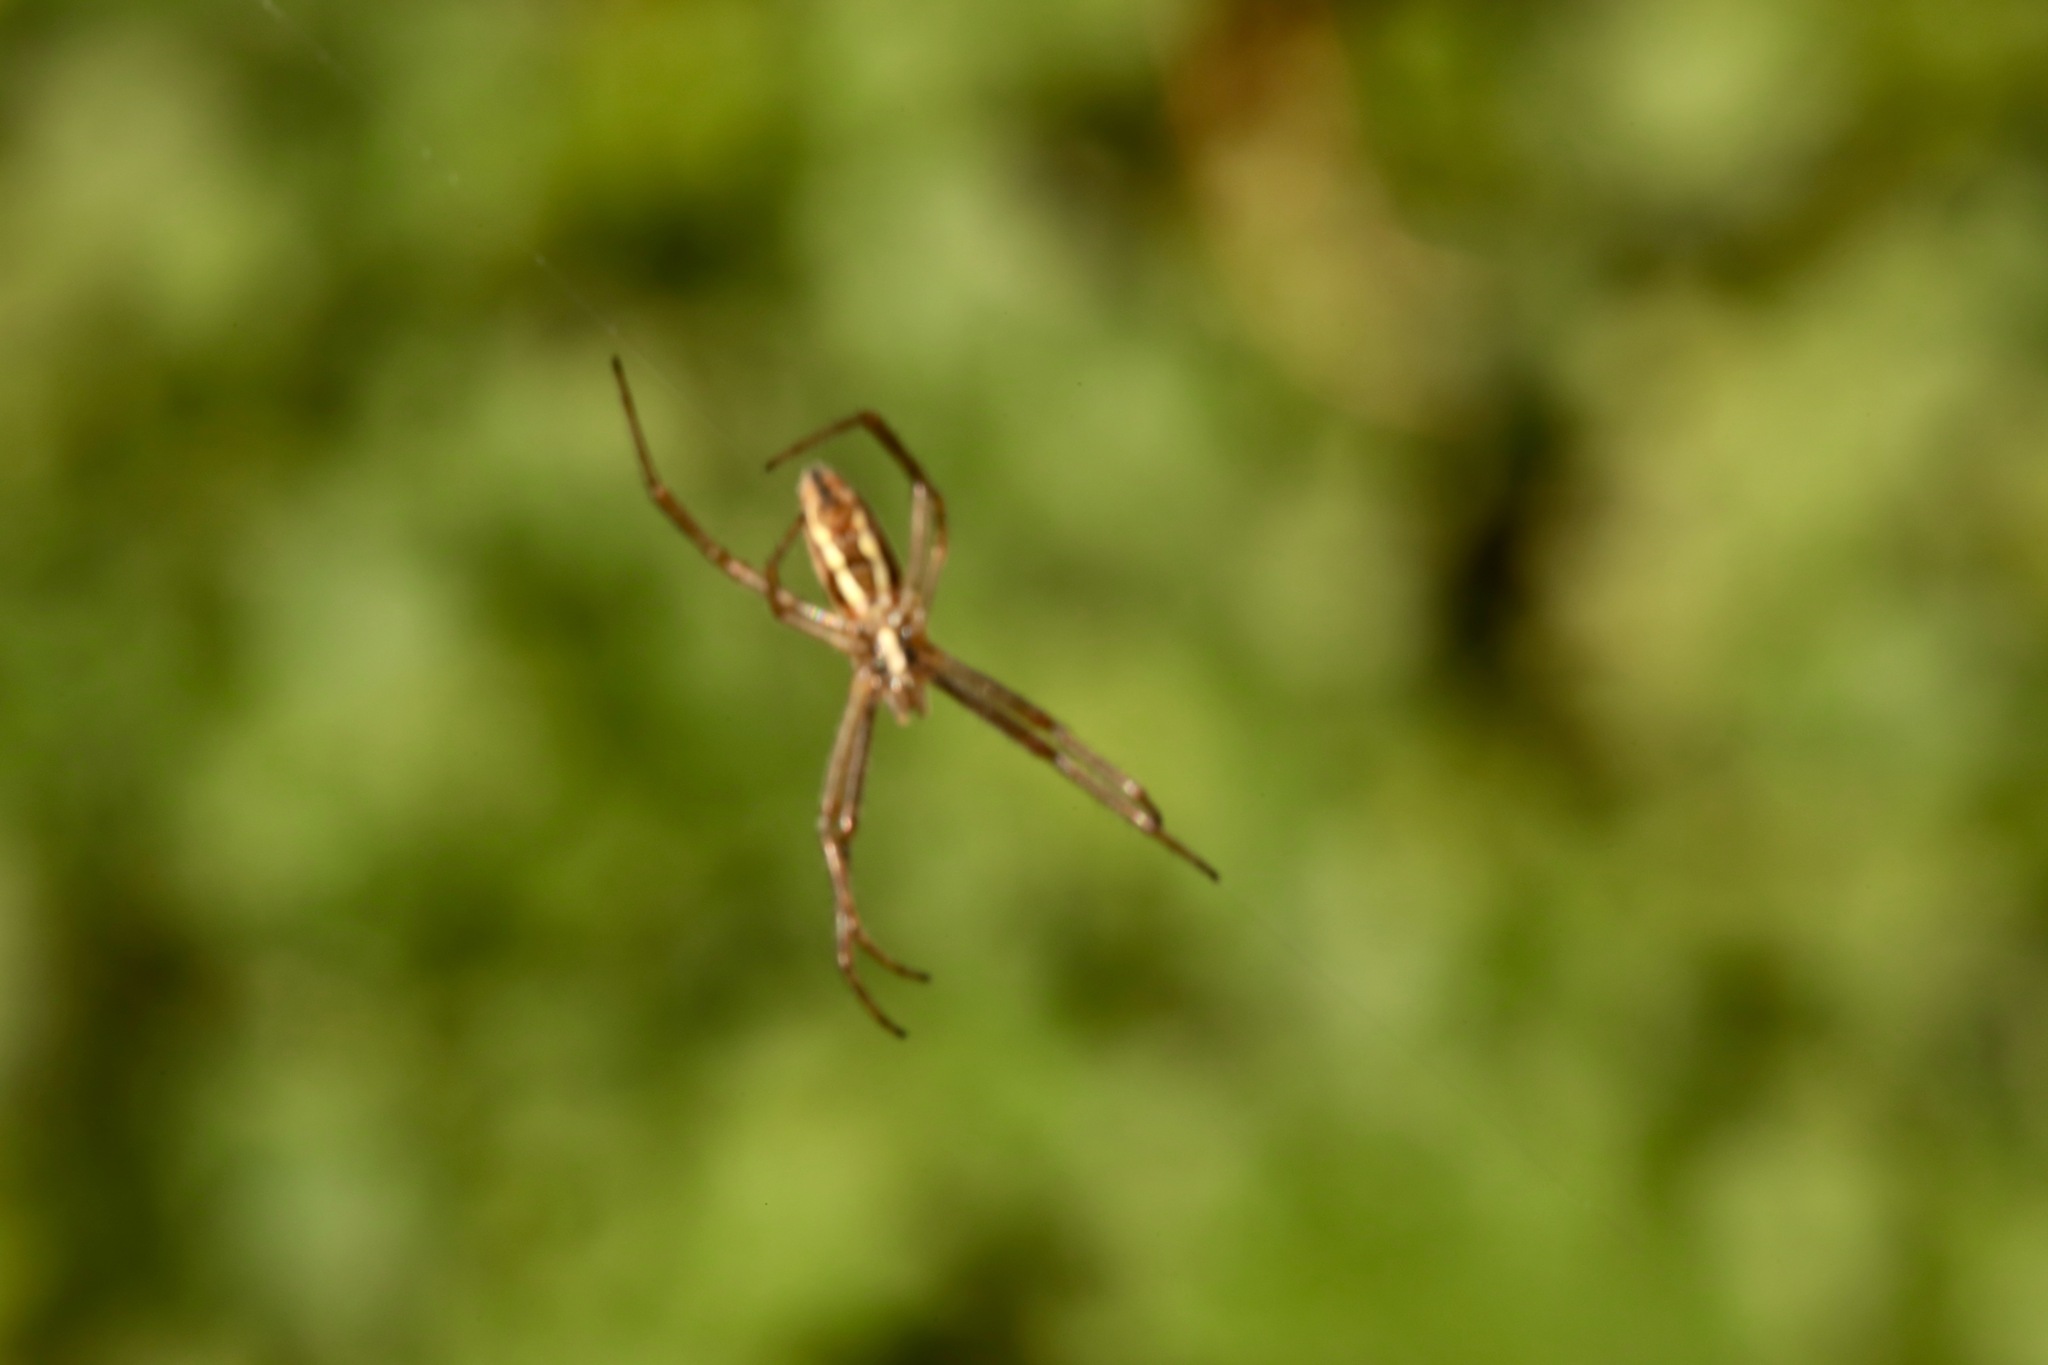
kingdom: Animalia
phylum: Arthropoda
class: Arachnida
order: Araneae
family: Araneidae
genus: Argiope
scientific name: Argiope trifasciata
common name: Banded garden spider
